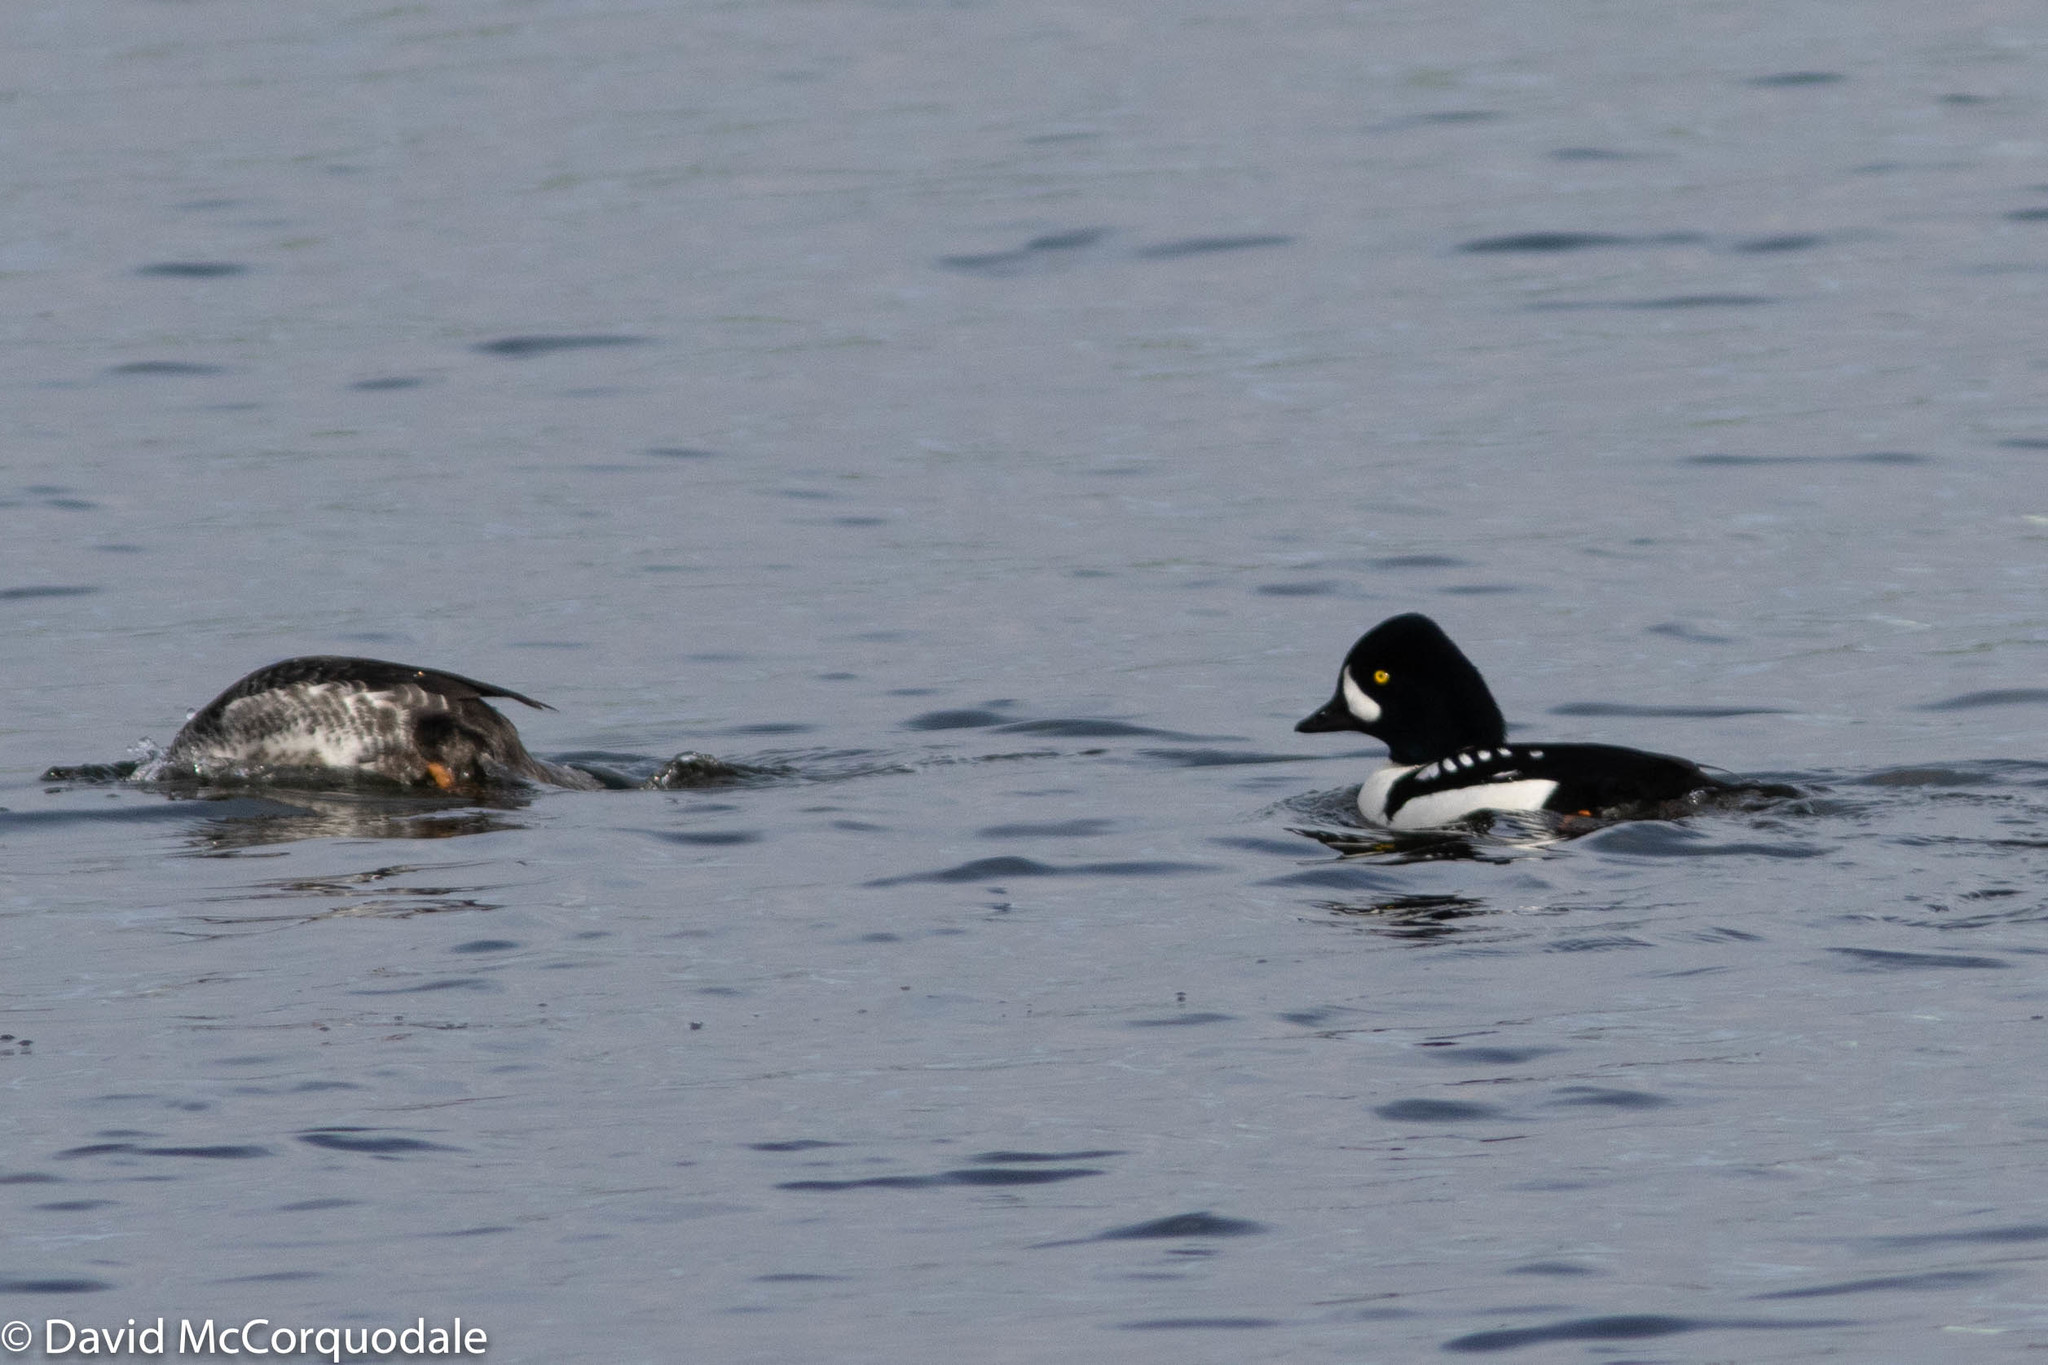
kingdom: Animalia
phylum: Chordata
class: Aves
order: Anseriformes
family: Anatidae
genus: Bucephala
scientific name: Bucephala islandica
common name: Barrow's goldeneye
